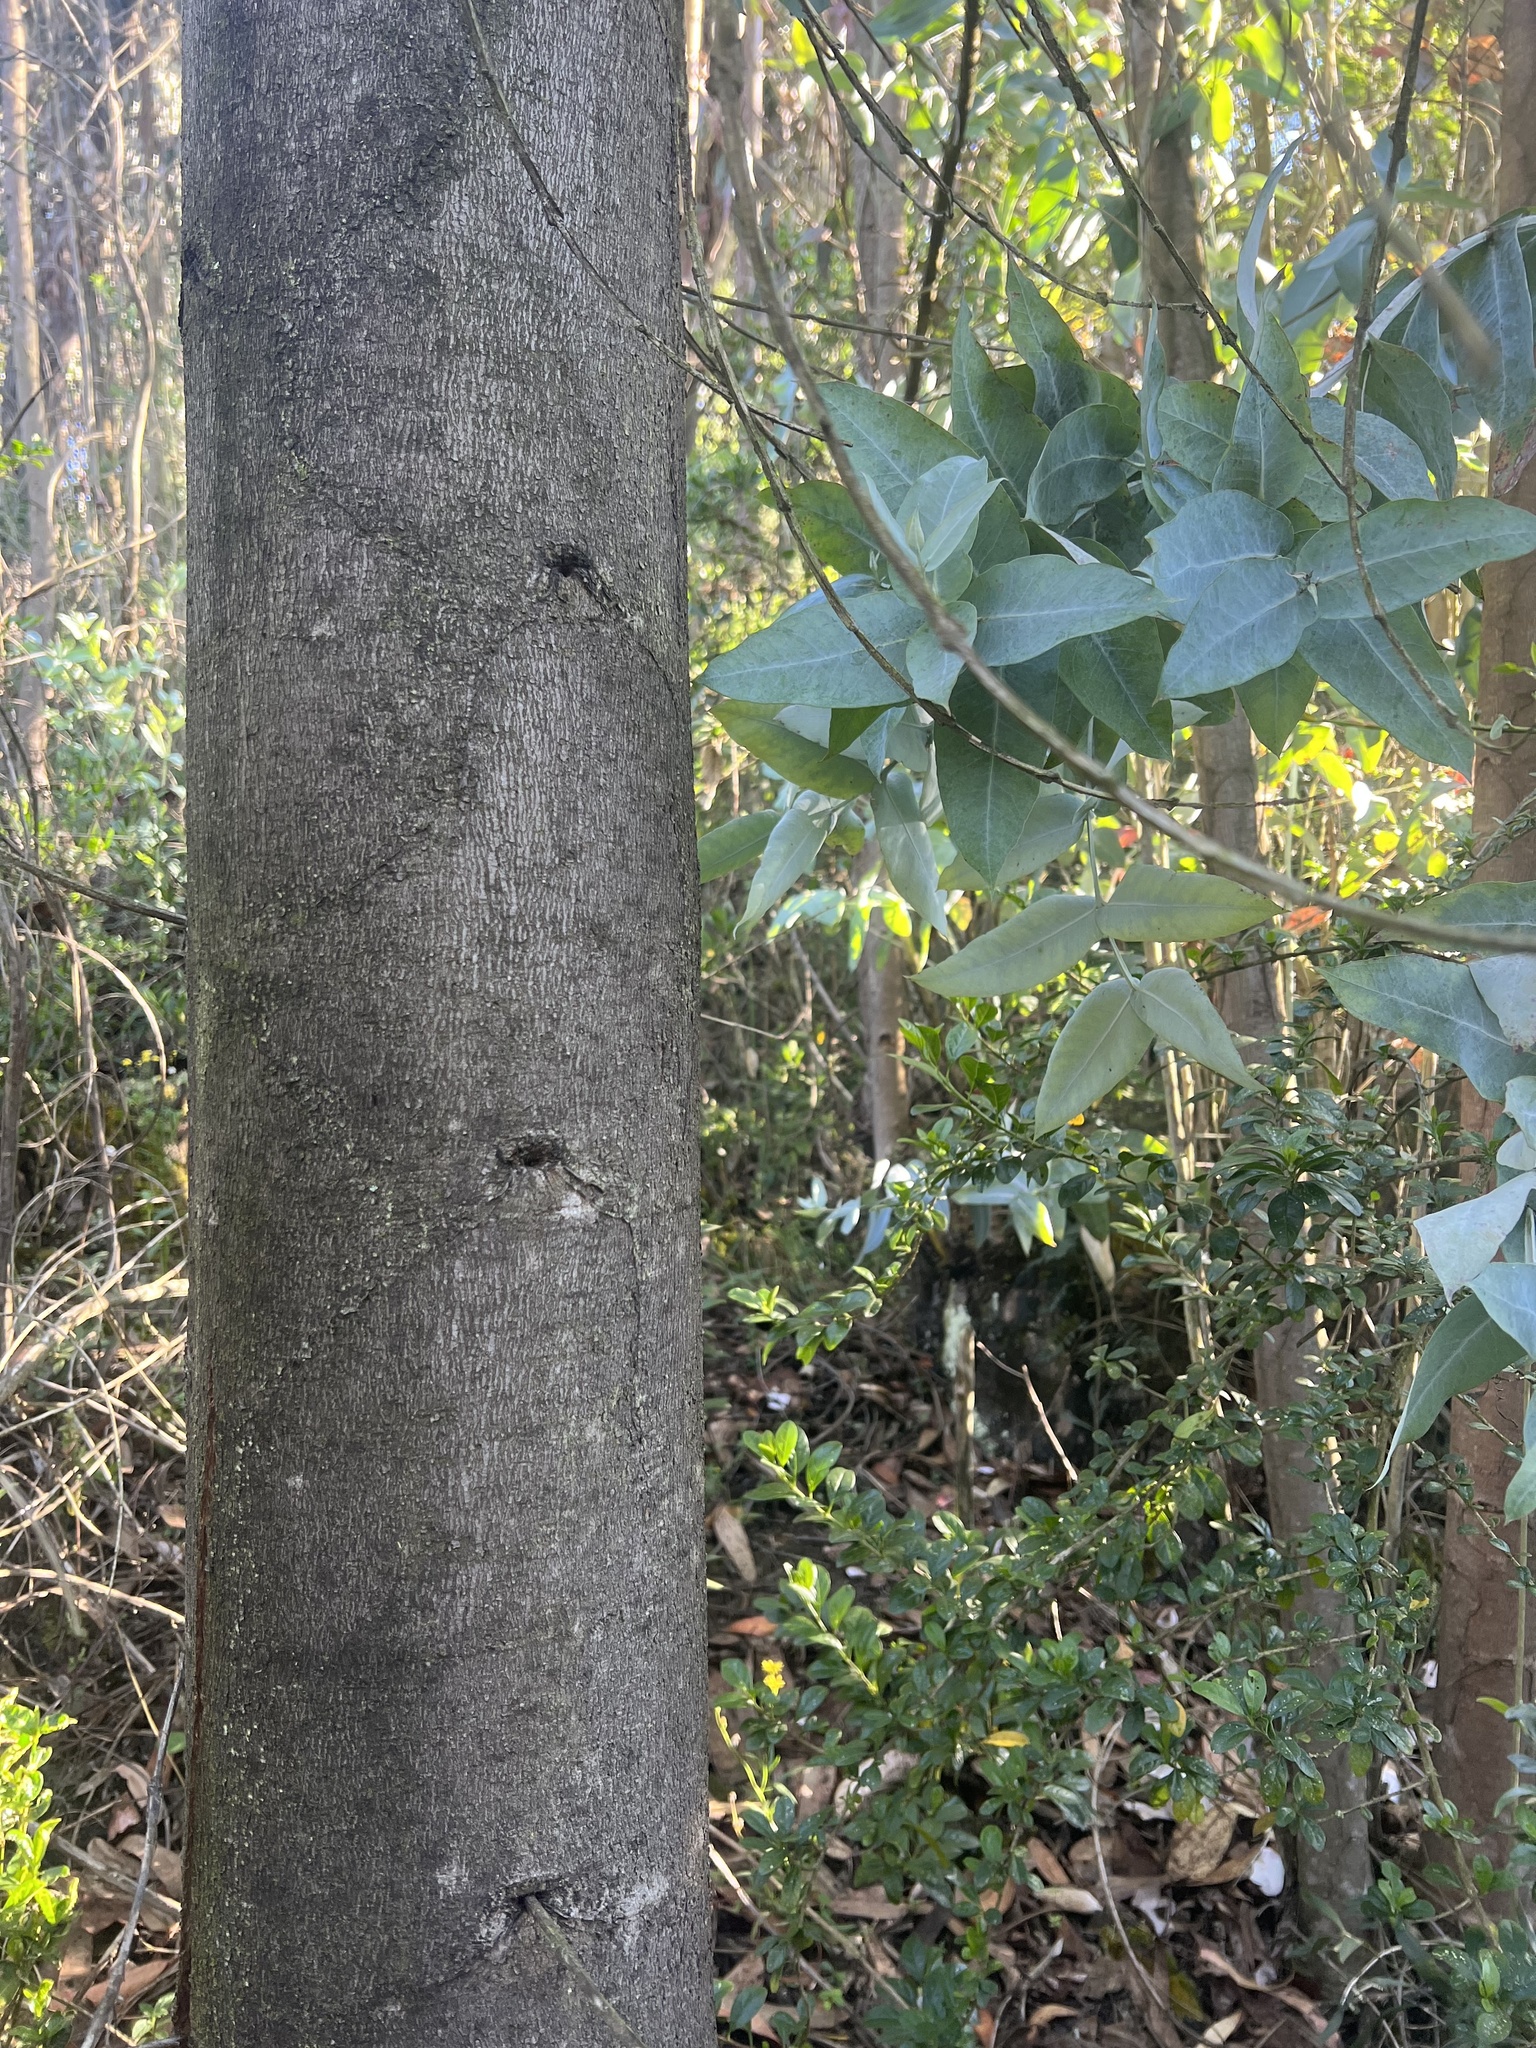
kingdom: Plantae
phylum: Tracheophyta
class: Magnoliopsida
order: Myrtales
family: Myrtaceae
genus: Eucalyptus
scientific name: Eucalyptus globulus
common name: Southern blue-gum
